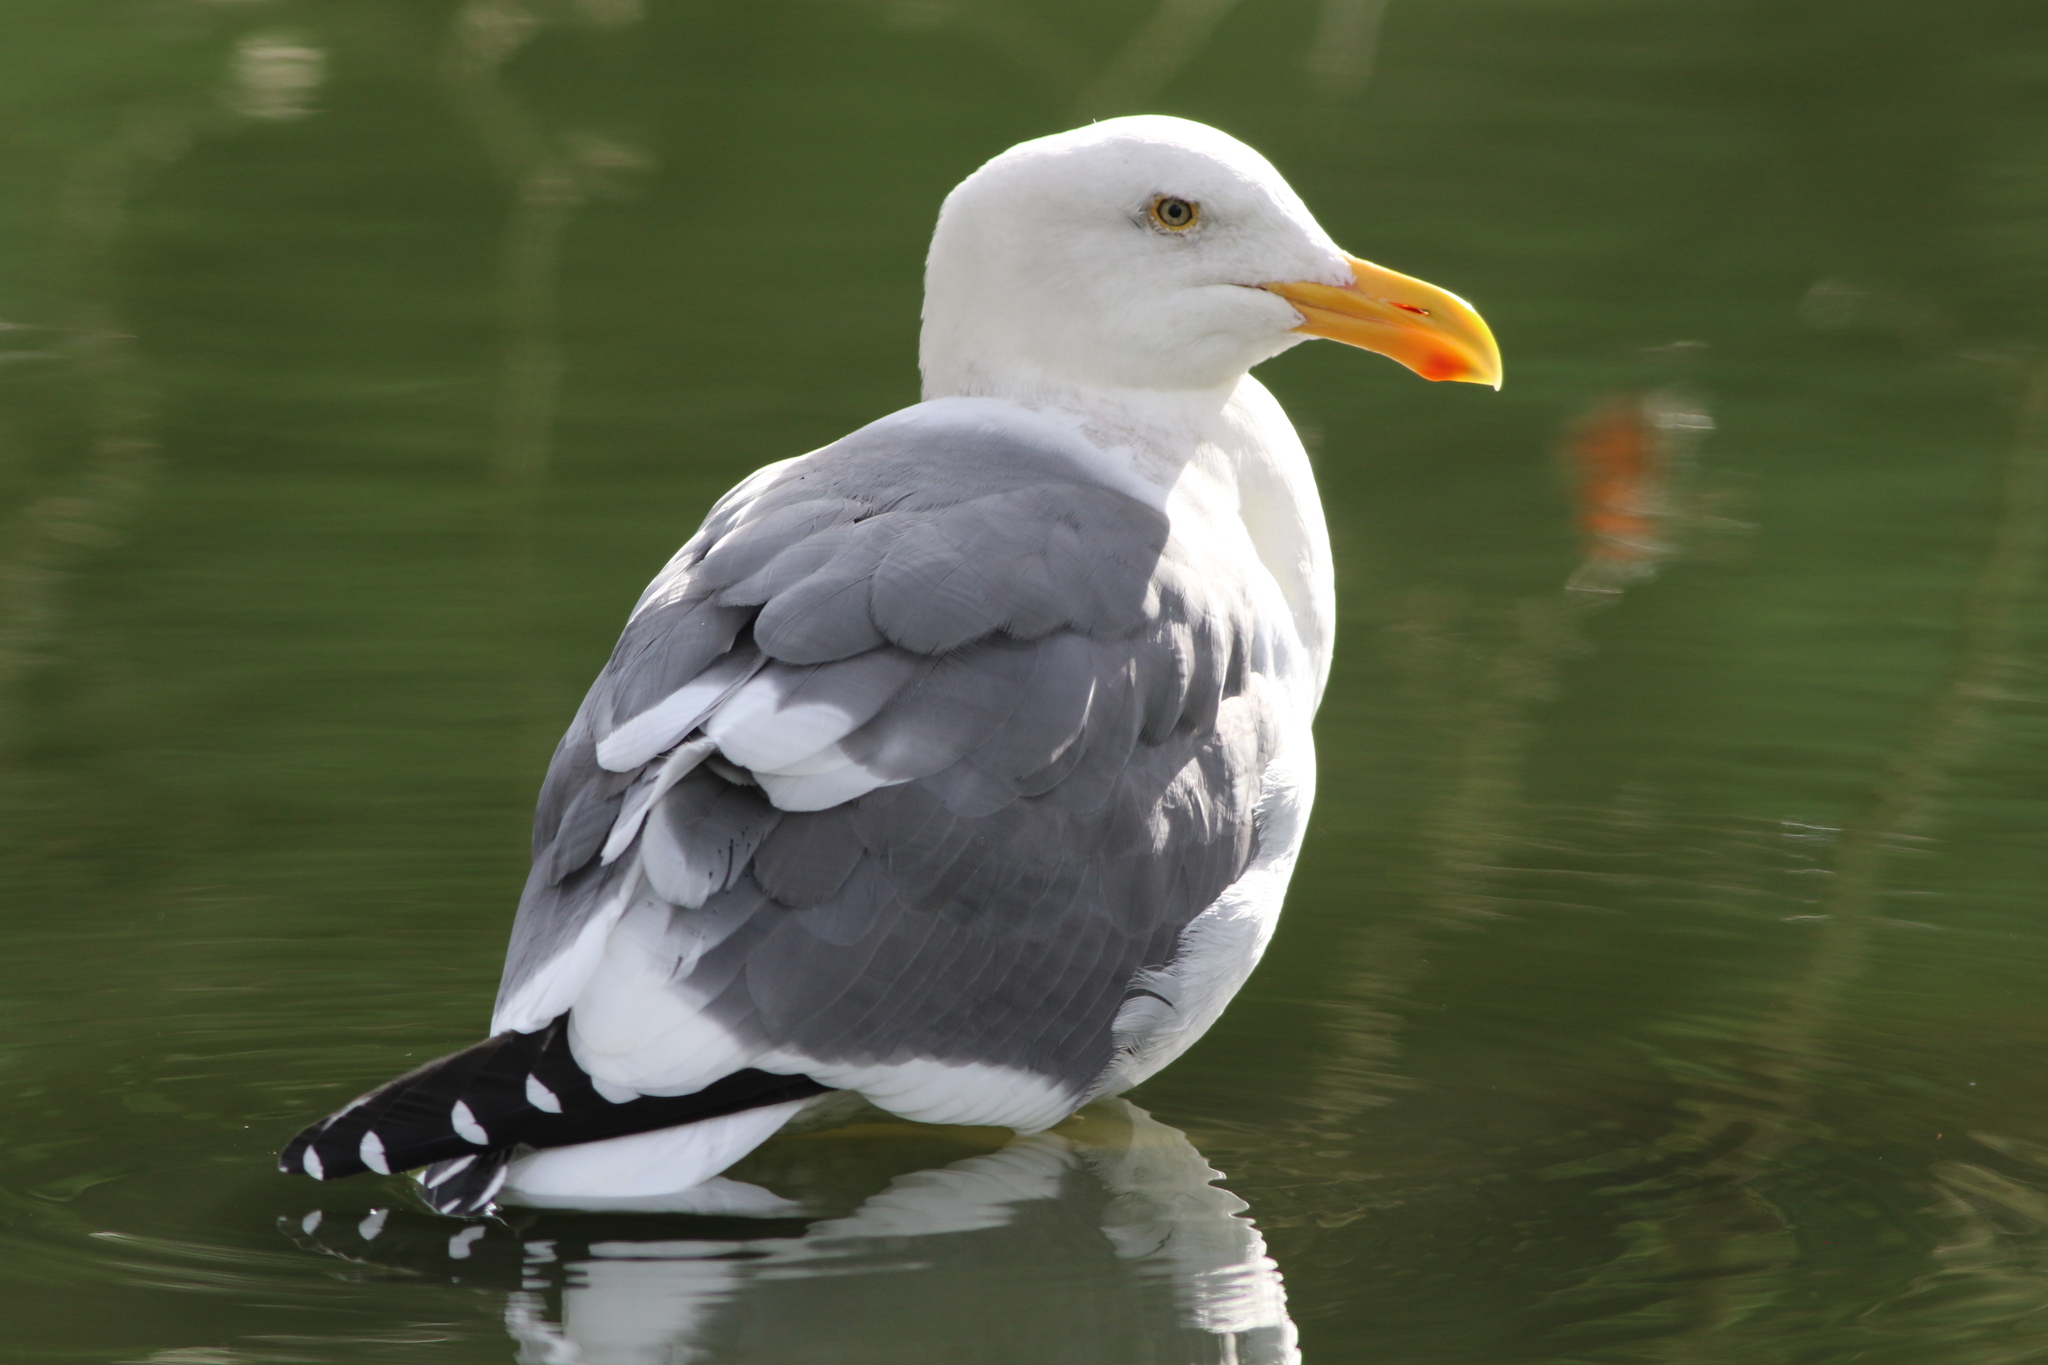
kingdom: Animalia
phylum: Chordata
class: Aves
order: Charadriiformes
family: Laridae
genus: Larus
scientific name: Larus occidentalis
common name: Western gull
